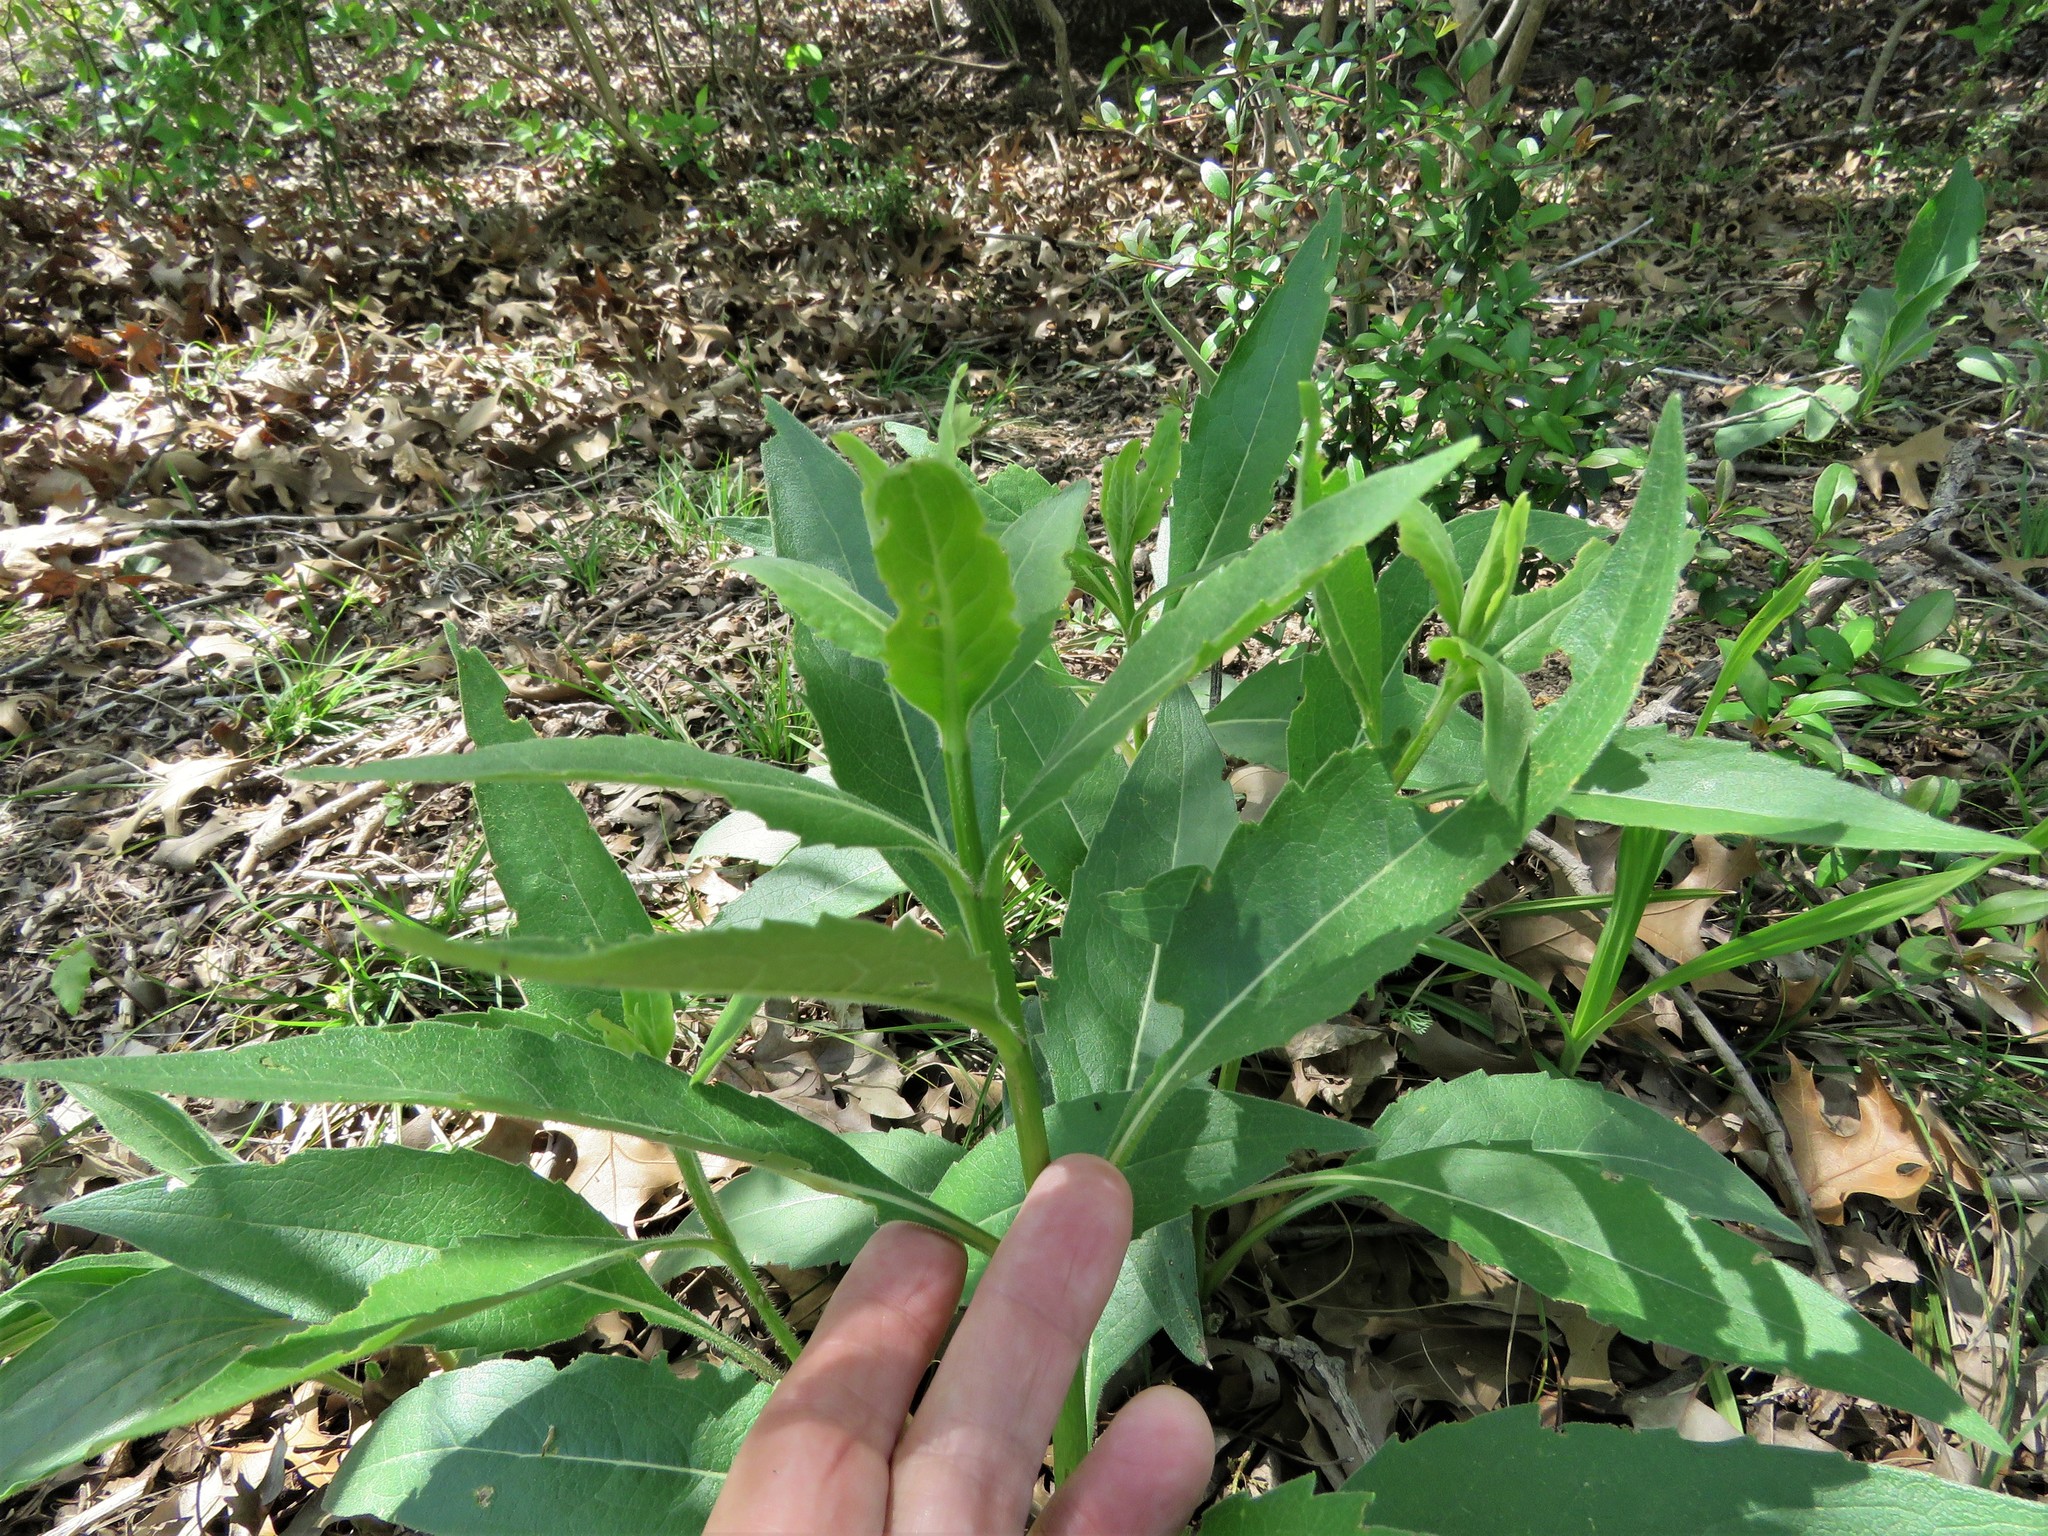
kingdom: Plantae
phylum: Tracheophyta
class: Magnoliopsida
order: Asterales
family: Asteraceae
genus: Verbesina
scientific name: Verbesina virginica
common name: Frostweed
